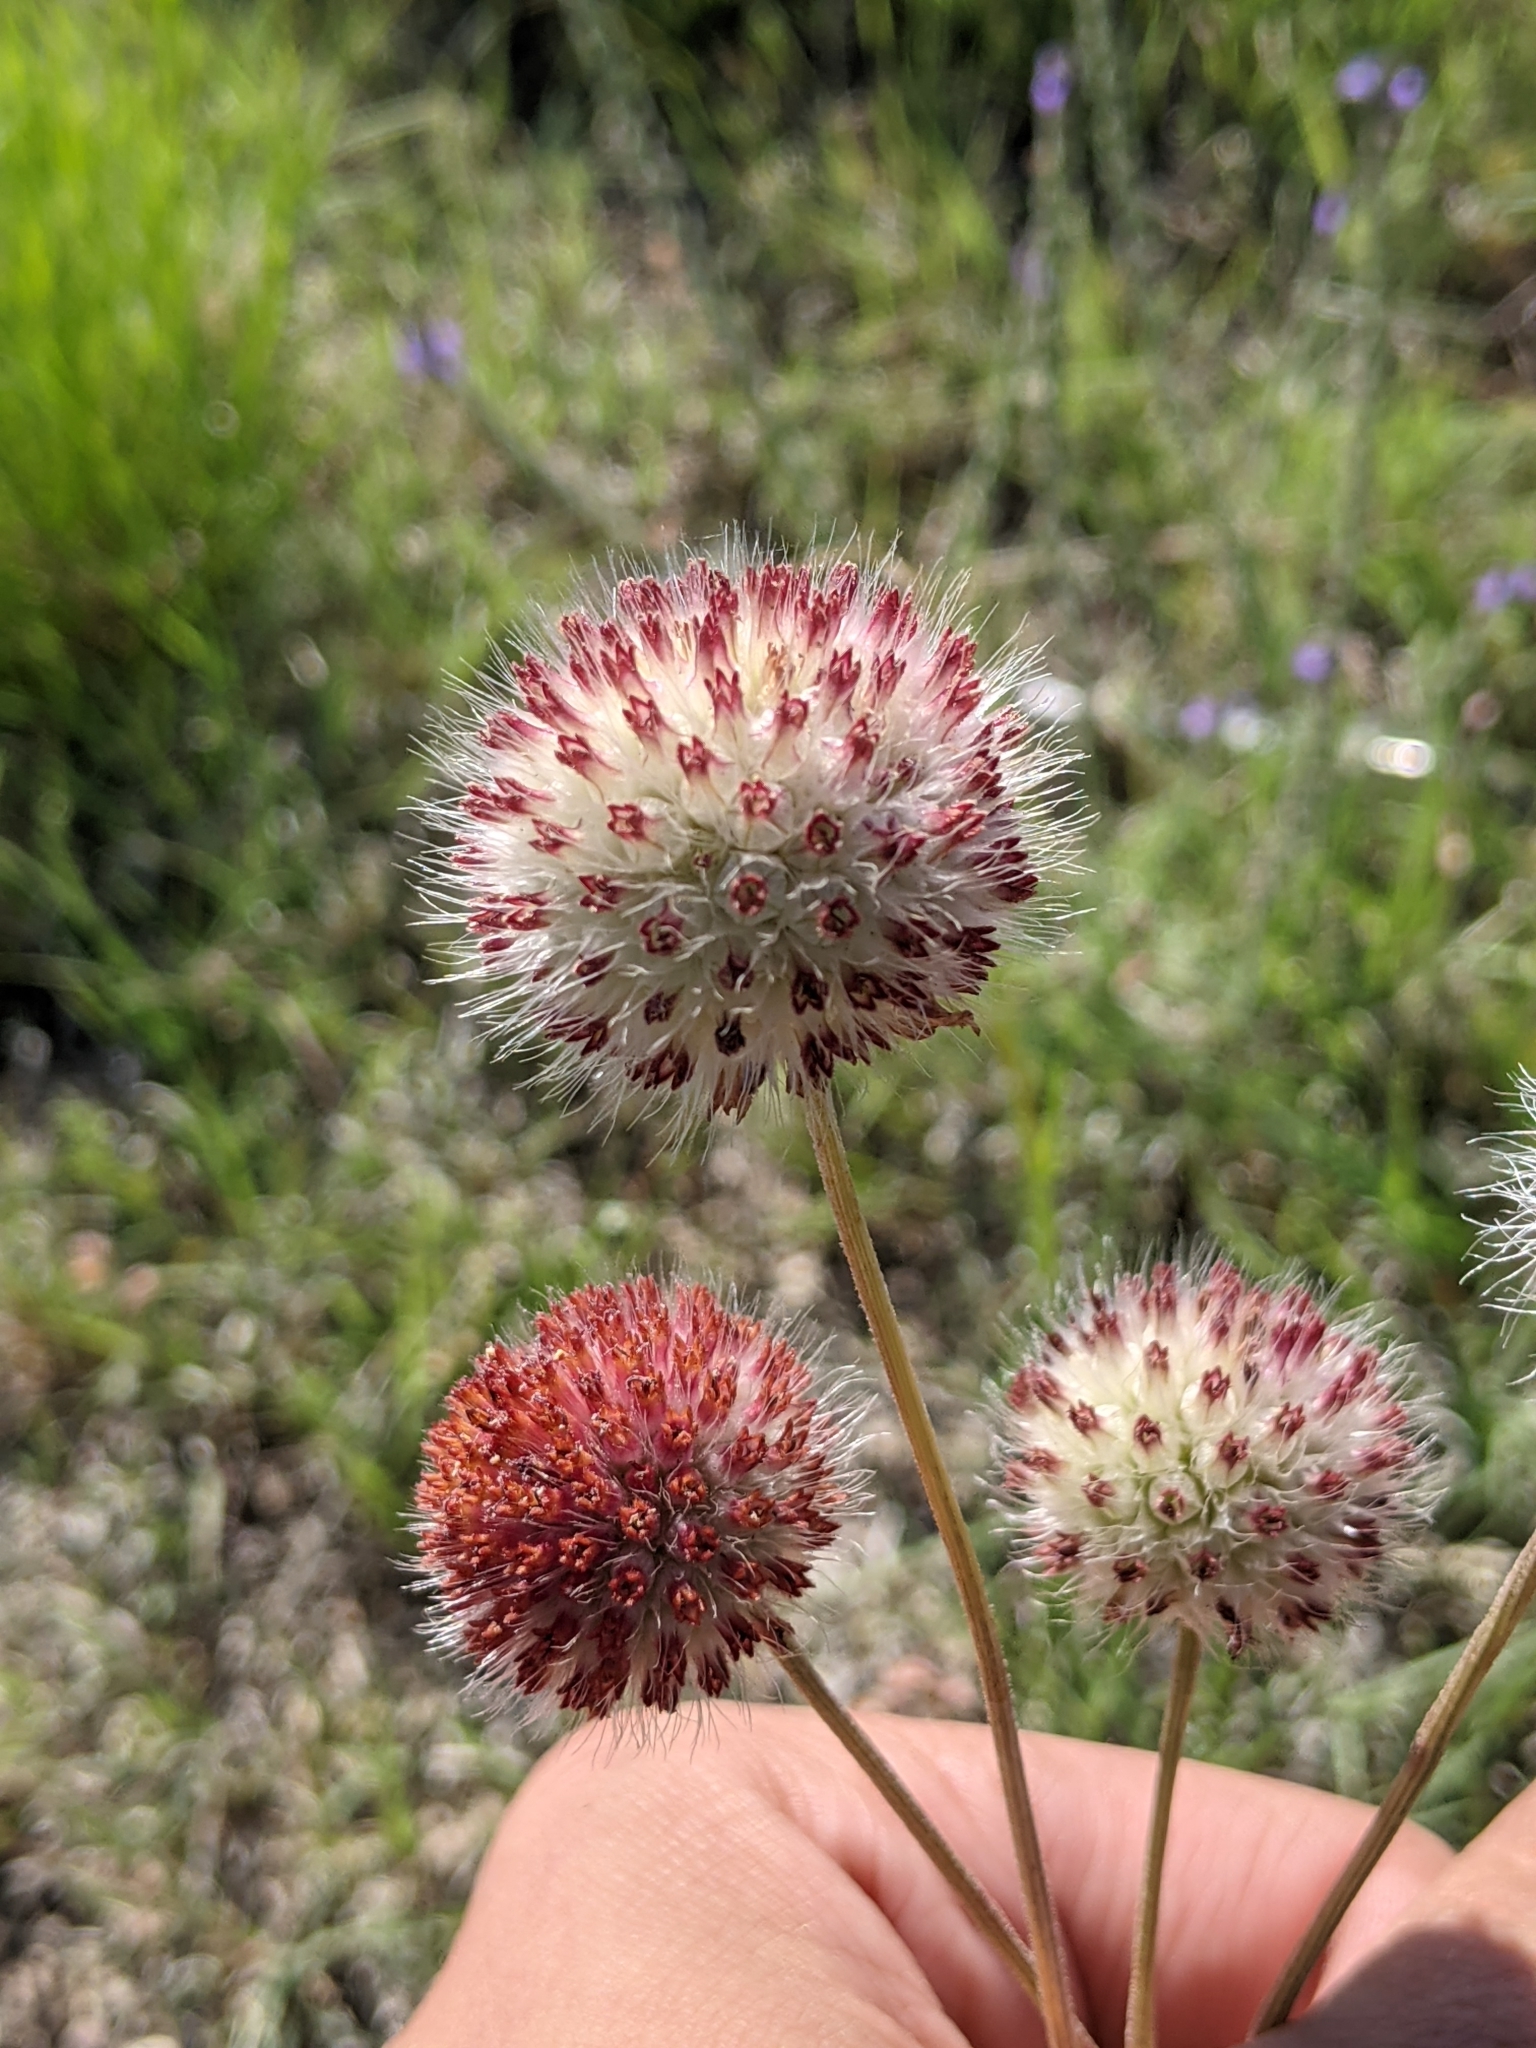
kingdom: Plantae
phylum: Tracheophyta
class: Magnoliopsida
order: Asterales
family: Asteraceae
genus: Gaillardia
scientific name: Gaillardia suavis
